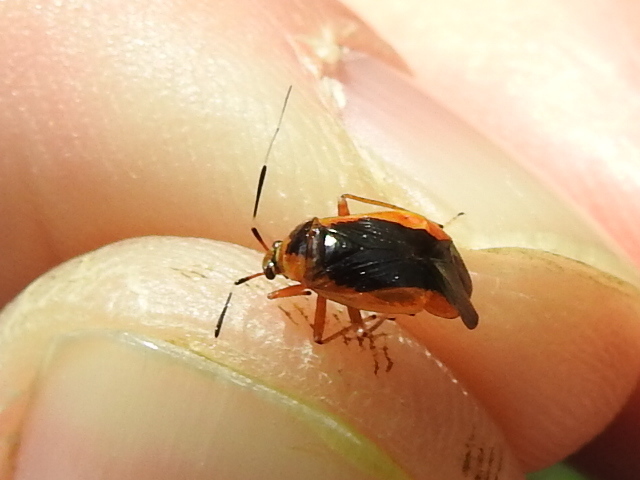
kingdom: Animalia
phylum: Arthropoda
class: Insecta
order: Hemiptera
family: Miridae
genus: Metriorrhynchomiris
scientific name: Metriorrhynchomiris dislocatus
